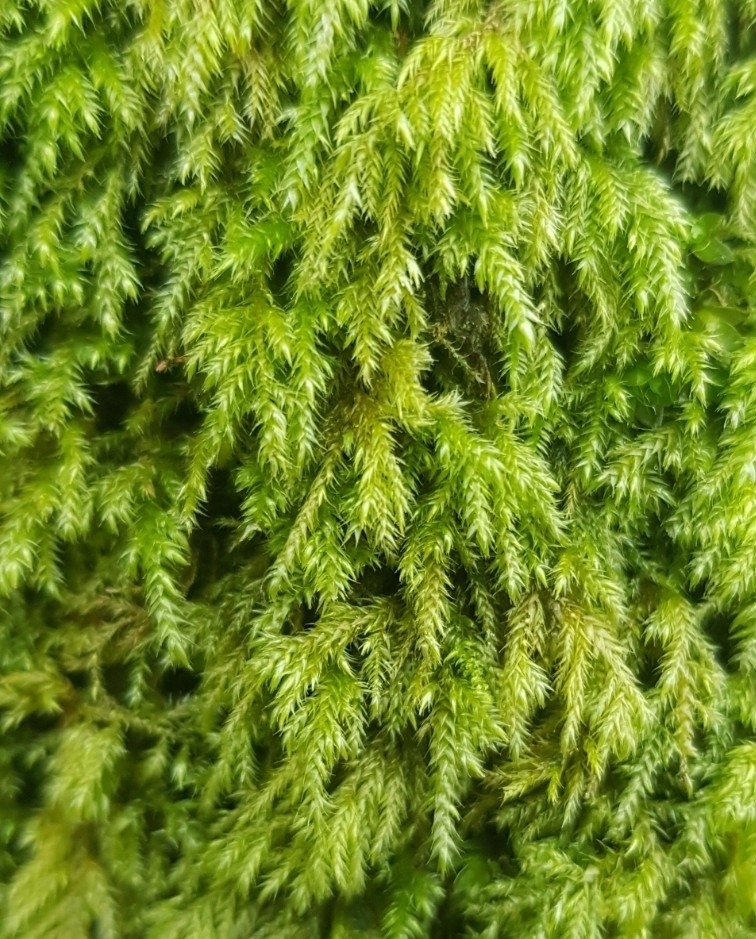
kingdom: Plantae
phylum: Bryophyta
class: Bryopsida
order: Hypnales
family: Lembophyllaceae
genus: Pseudisothecium
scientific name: Pseudisothecium myosuroides
